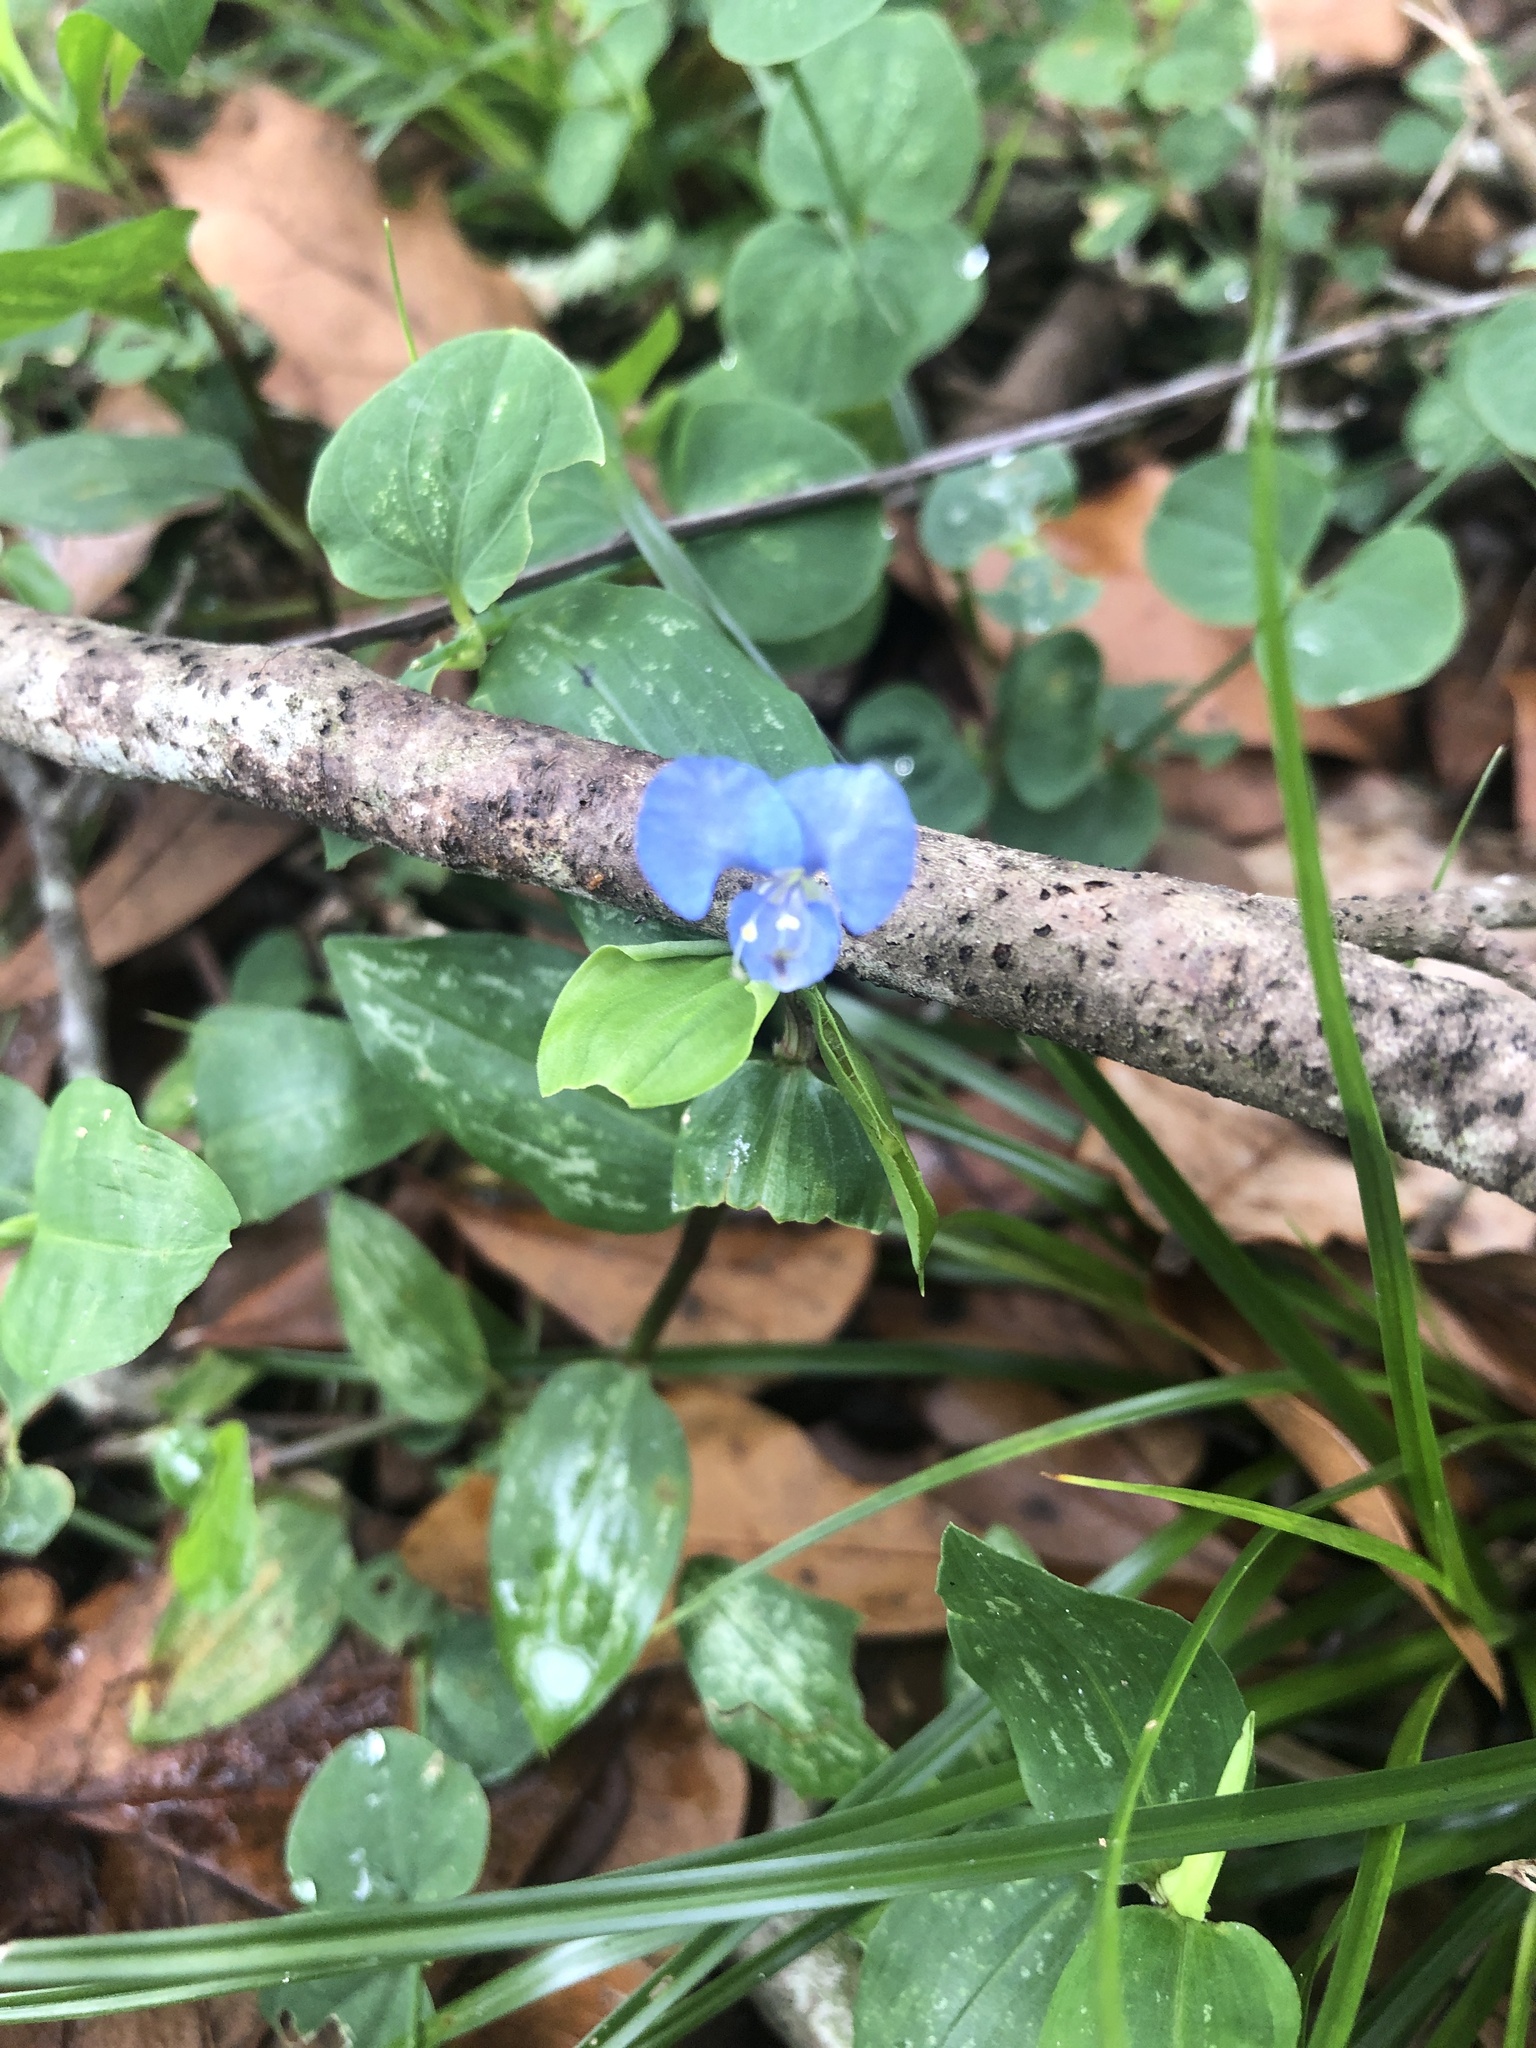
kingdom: Plantae
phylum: Tracheophyta
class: Liliopsida
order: Commelinales
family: Commelinaceae
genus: Commelina
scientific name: Commelina diffusa
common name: Climbing dayflower
